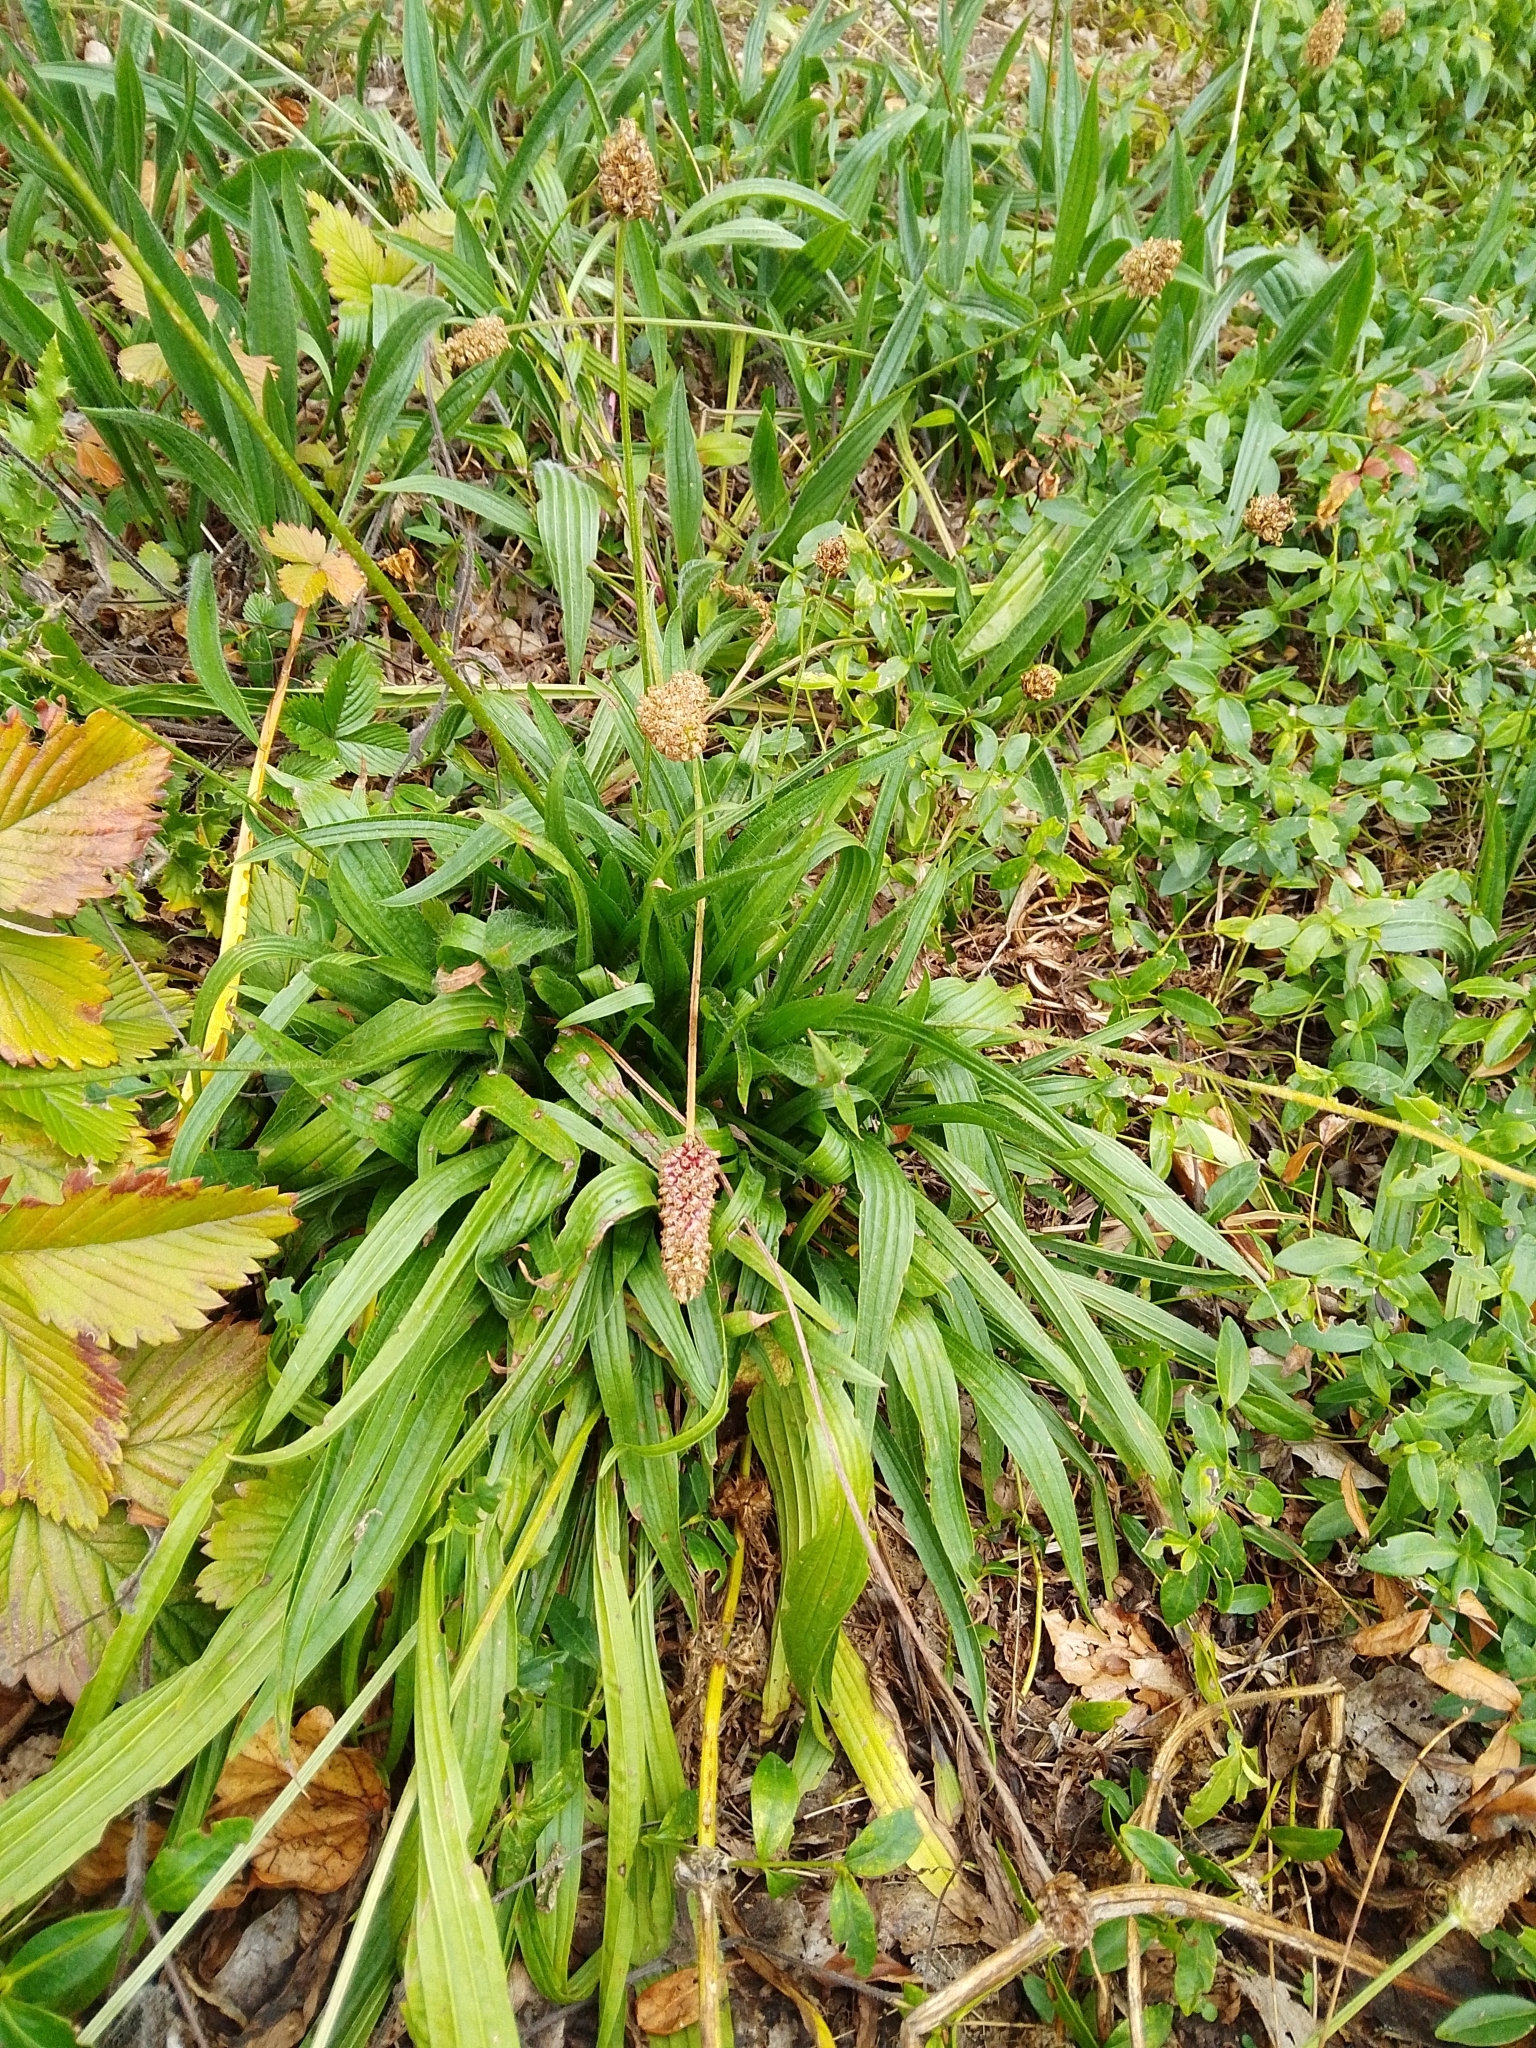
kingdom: Plantae
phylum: Tracheophyta
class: Magnoliopsida
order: Lamiales
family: Plantaginaceae
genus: Plantago
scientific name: Plantago lanceolata
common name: Ribwort plantain
